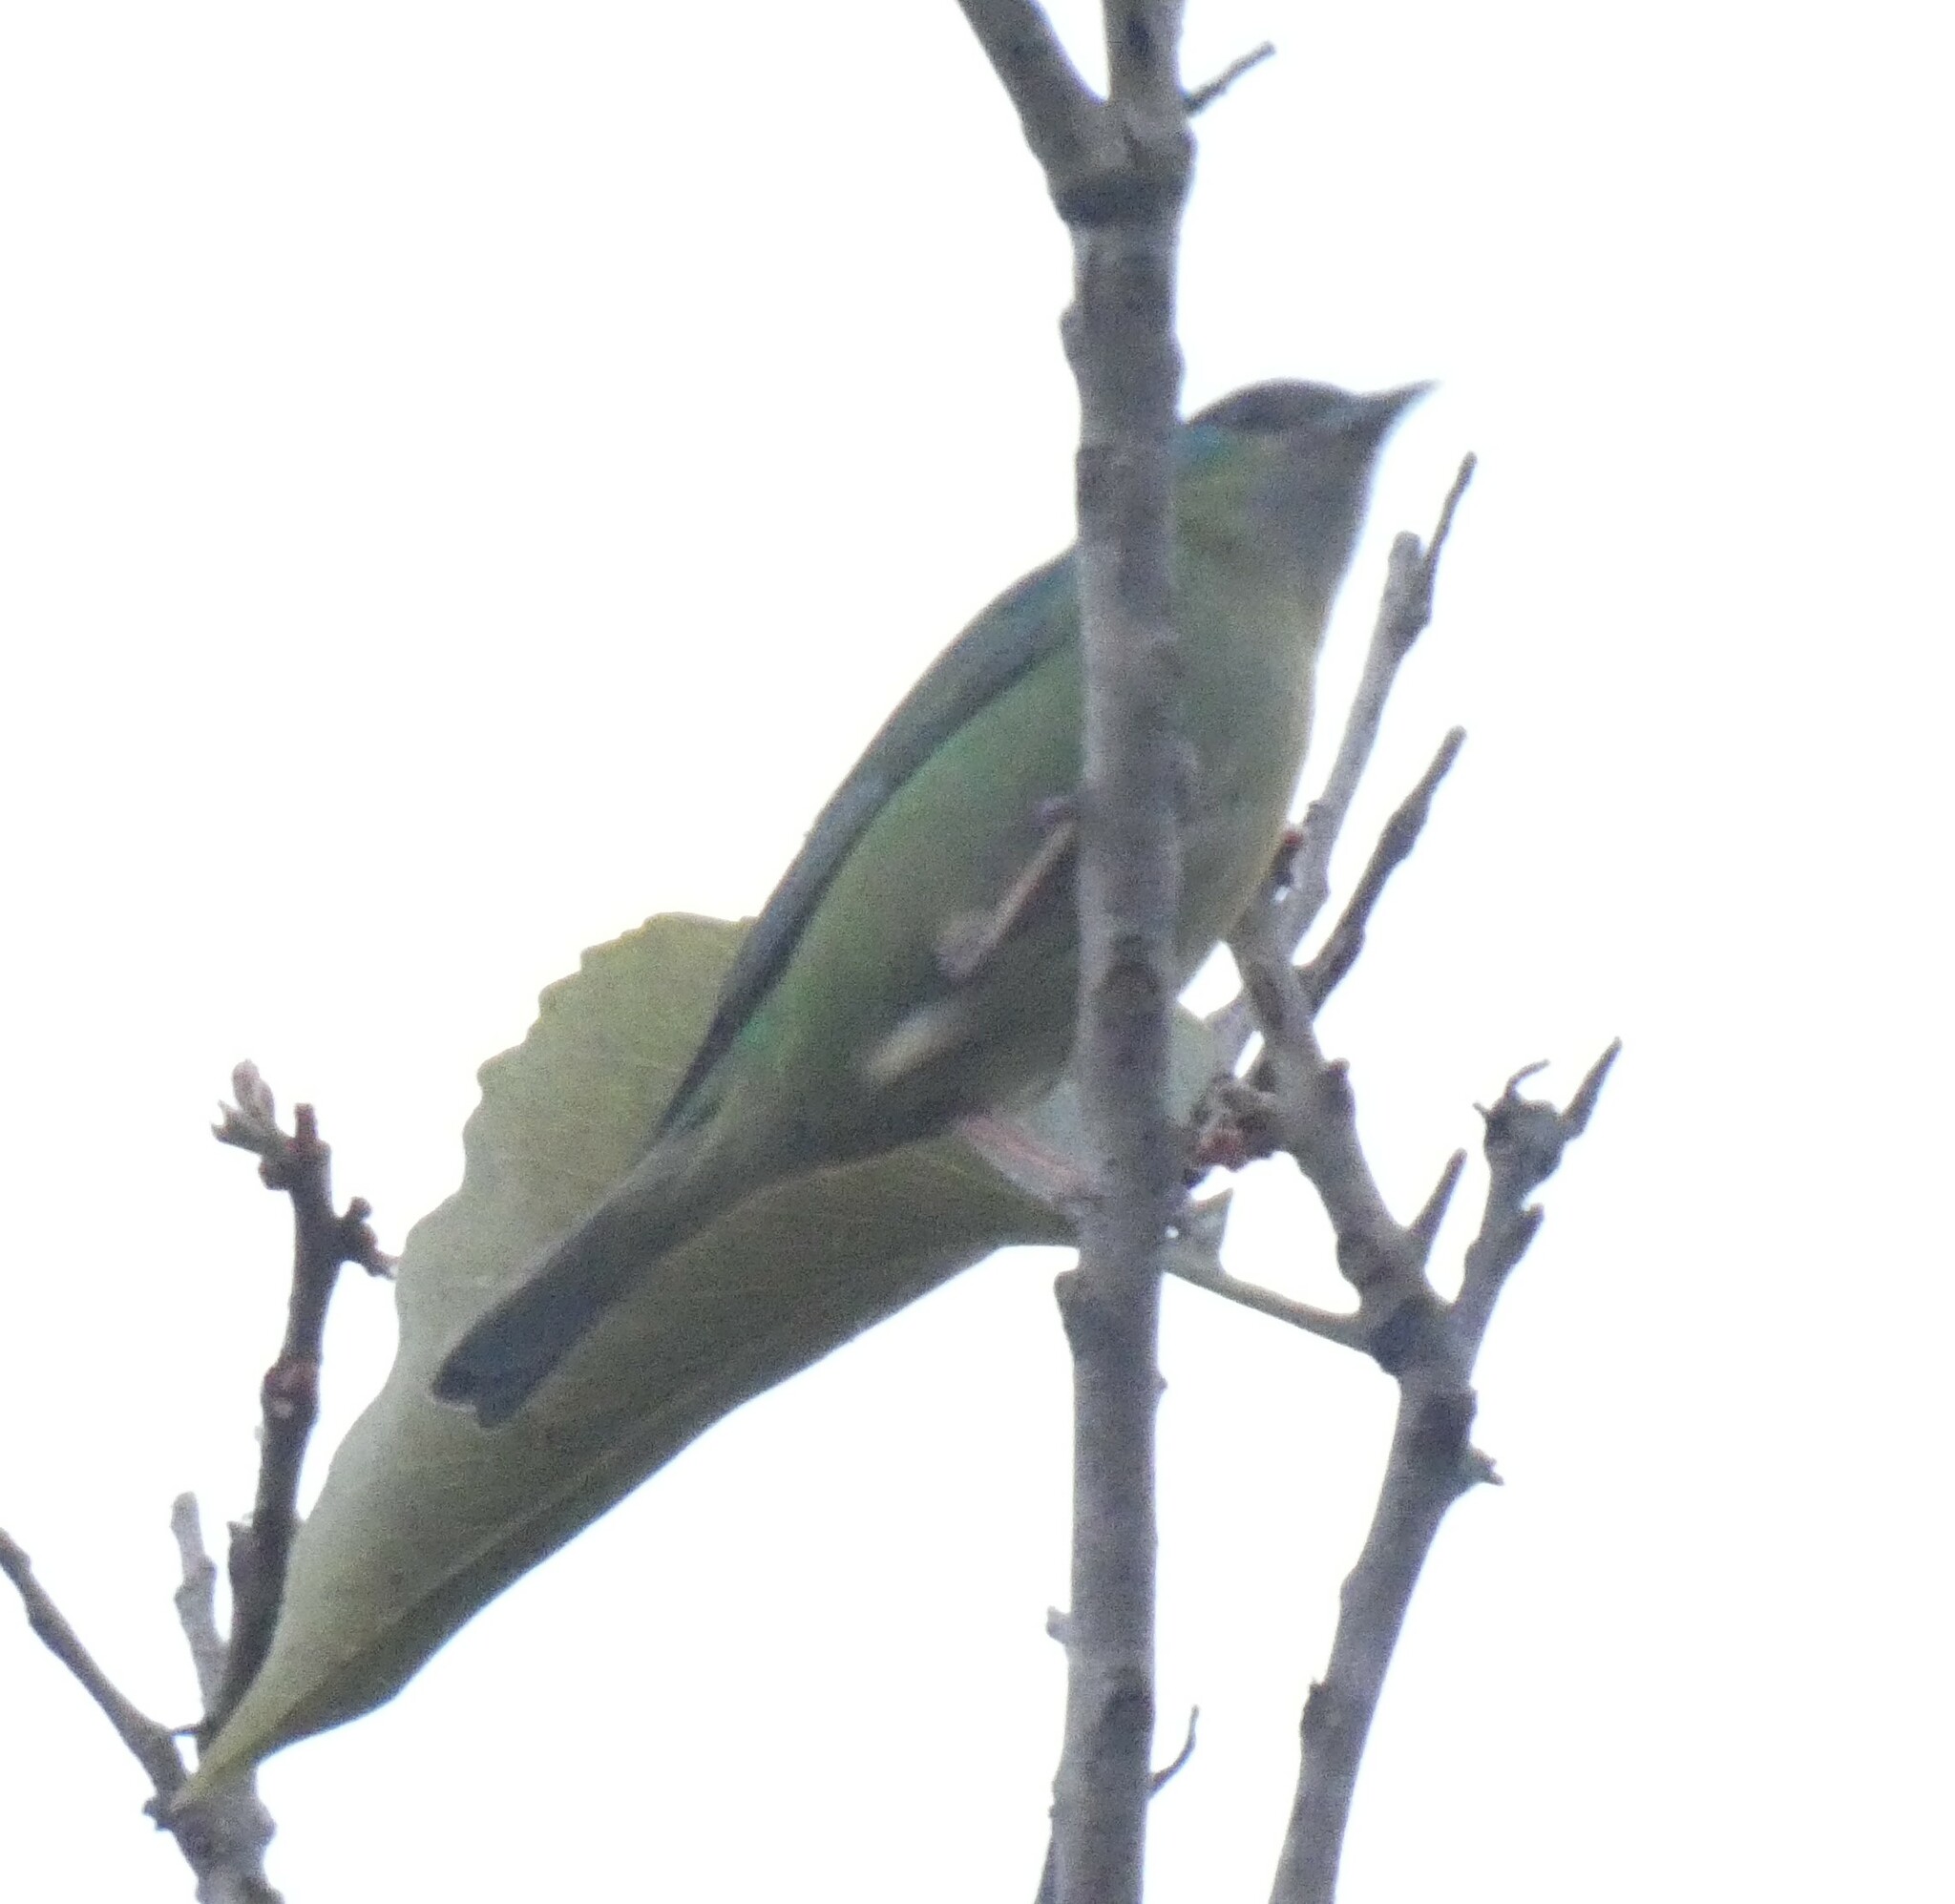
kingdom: Animalia
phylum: Chordata
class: Aves
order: Passeriformes
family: Thraupidae
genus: Dacnis
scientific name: Dacnis cayana
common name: Blue dacnis
